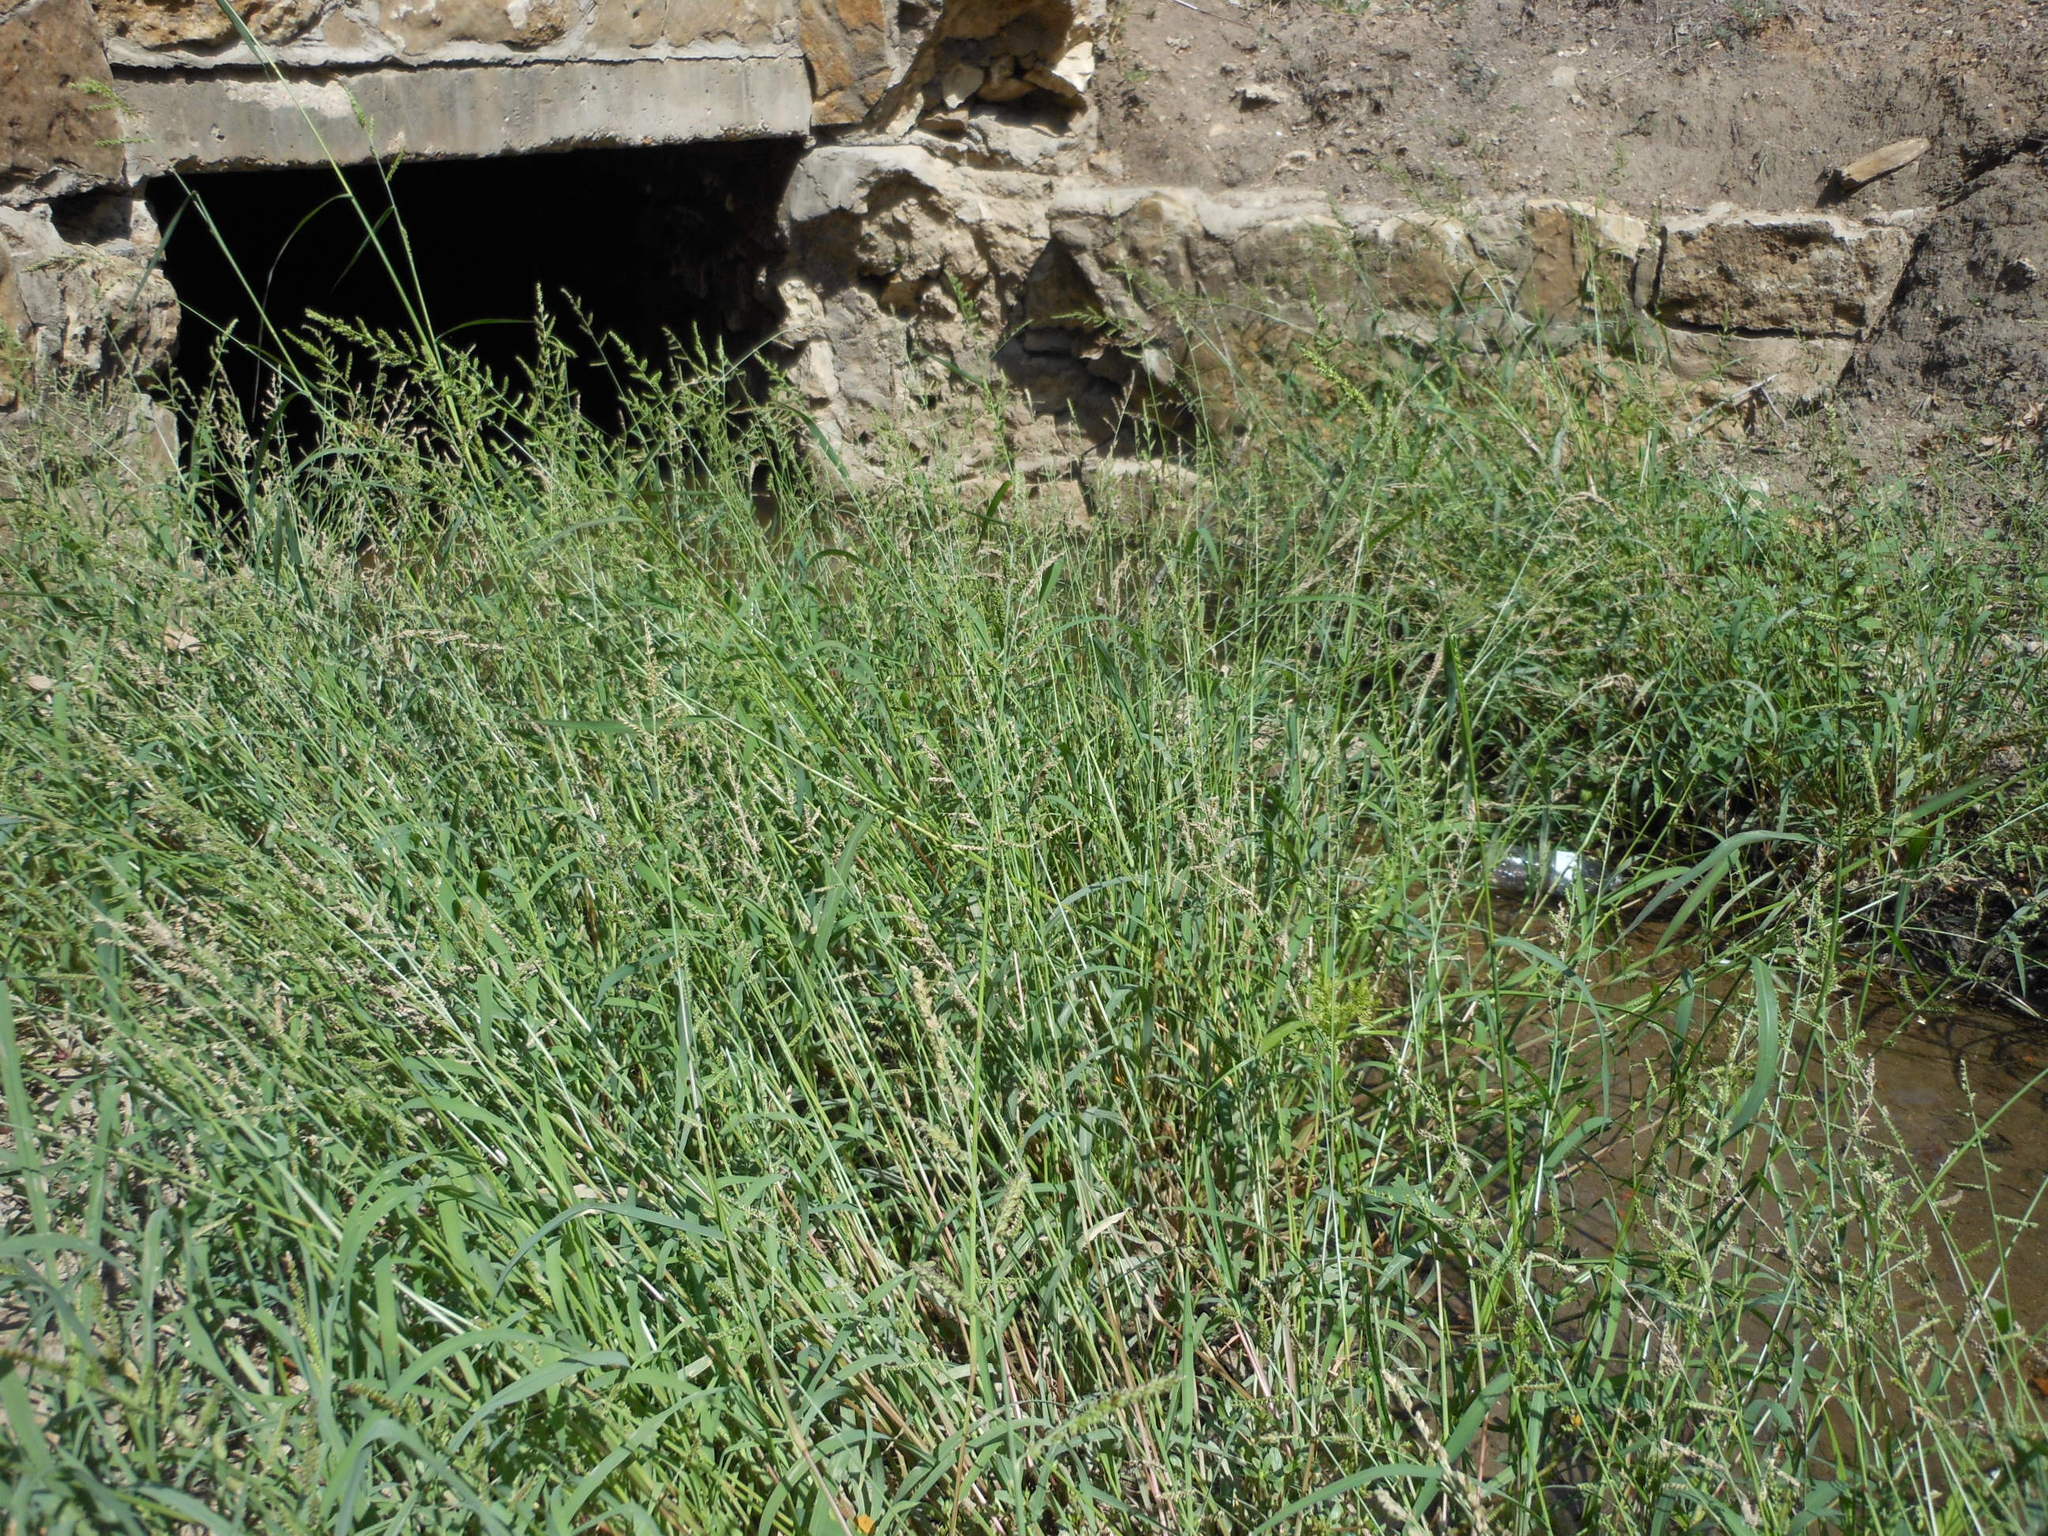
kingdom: Plantae
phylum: Tracheophyta
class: Liliopsida
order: Poales
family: Poaceae
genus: Echinochloa
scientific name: Echinochloa crus-galli
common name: Cockspur
